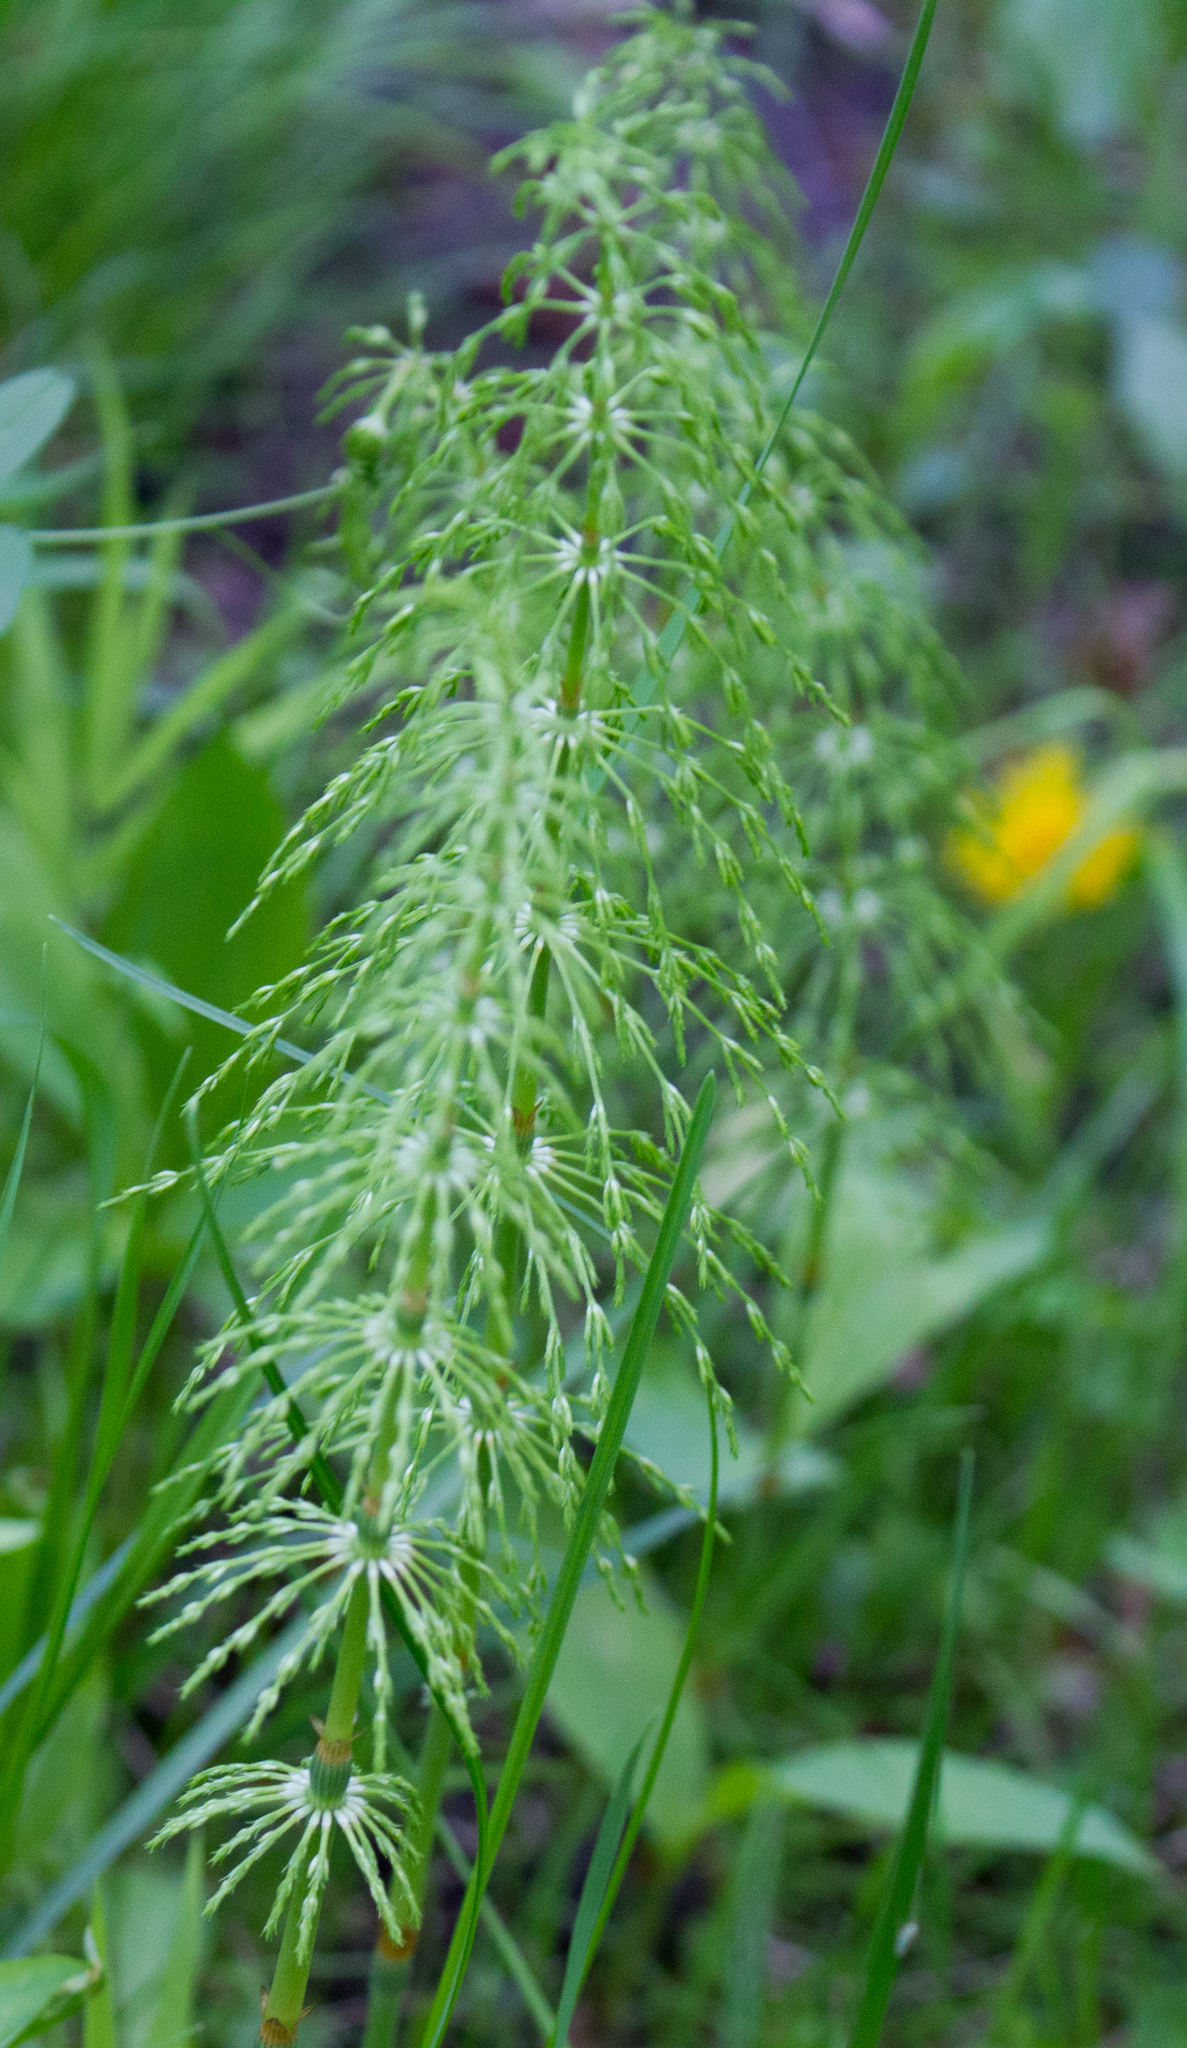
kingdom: Plantae
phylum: Tracheophyta
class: Polypodiopsida
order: Equisetales
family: Equisetaceae
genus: Equisetum
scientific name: Equisetum sylvaticum
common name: Wood horsetail
